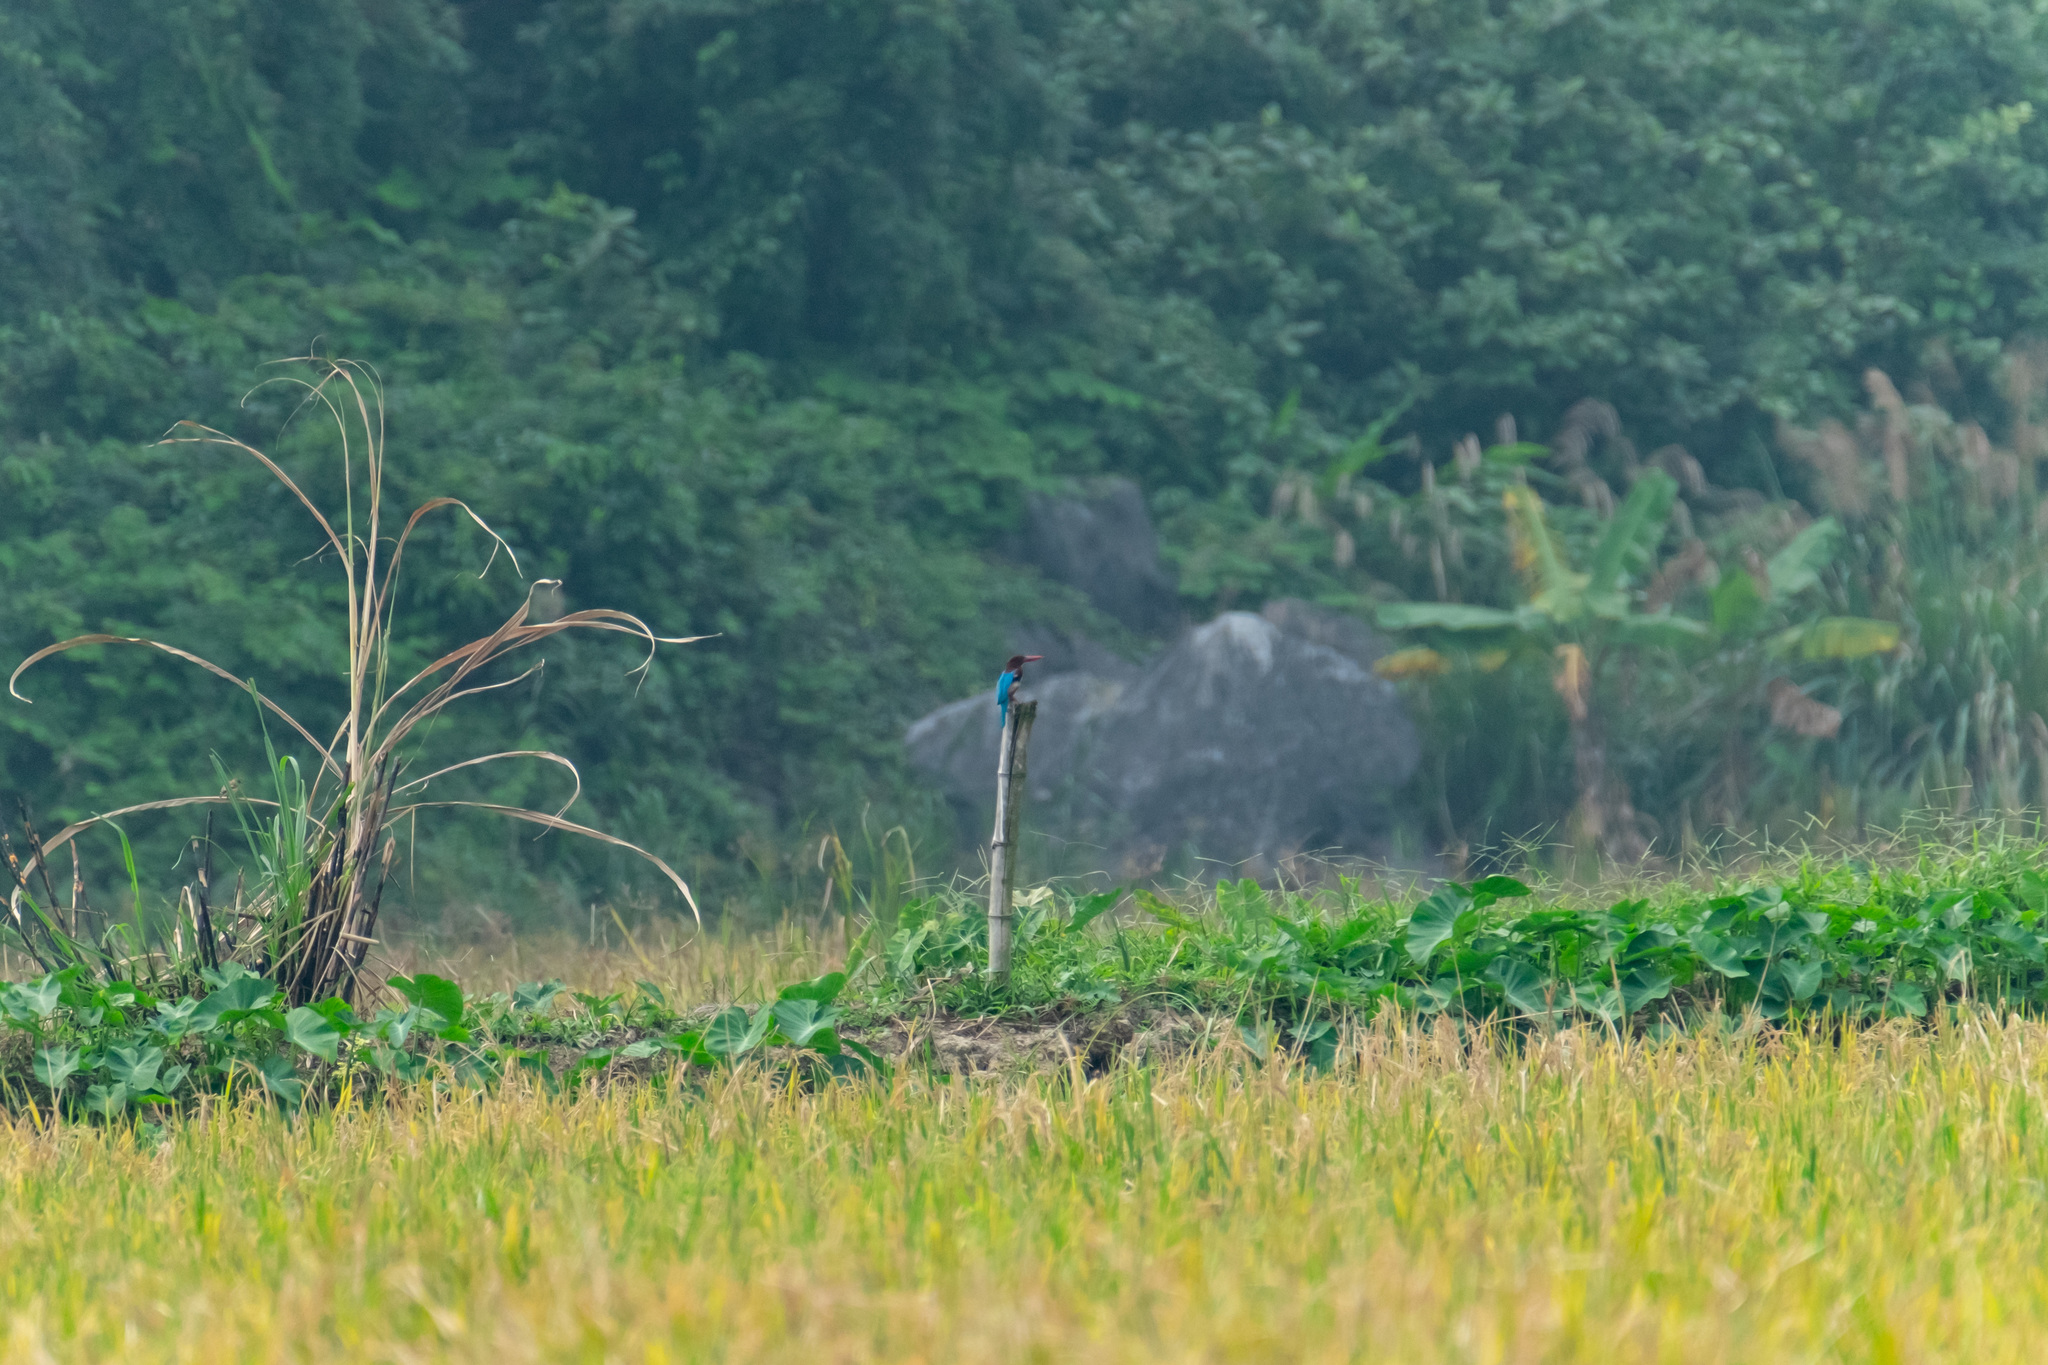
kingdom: Animalia
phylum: Chordata
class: Aves
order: Coraciiformes
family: Alcedinidae
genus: Halcyon
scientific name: Halcyon smyrnensis
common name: White-throated kingfisher
